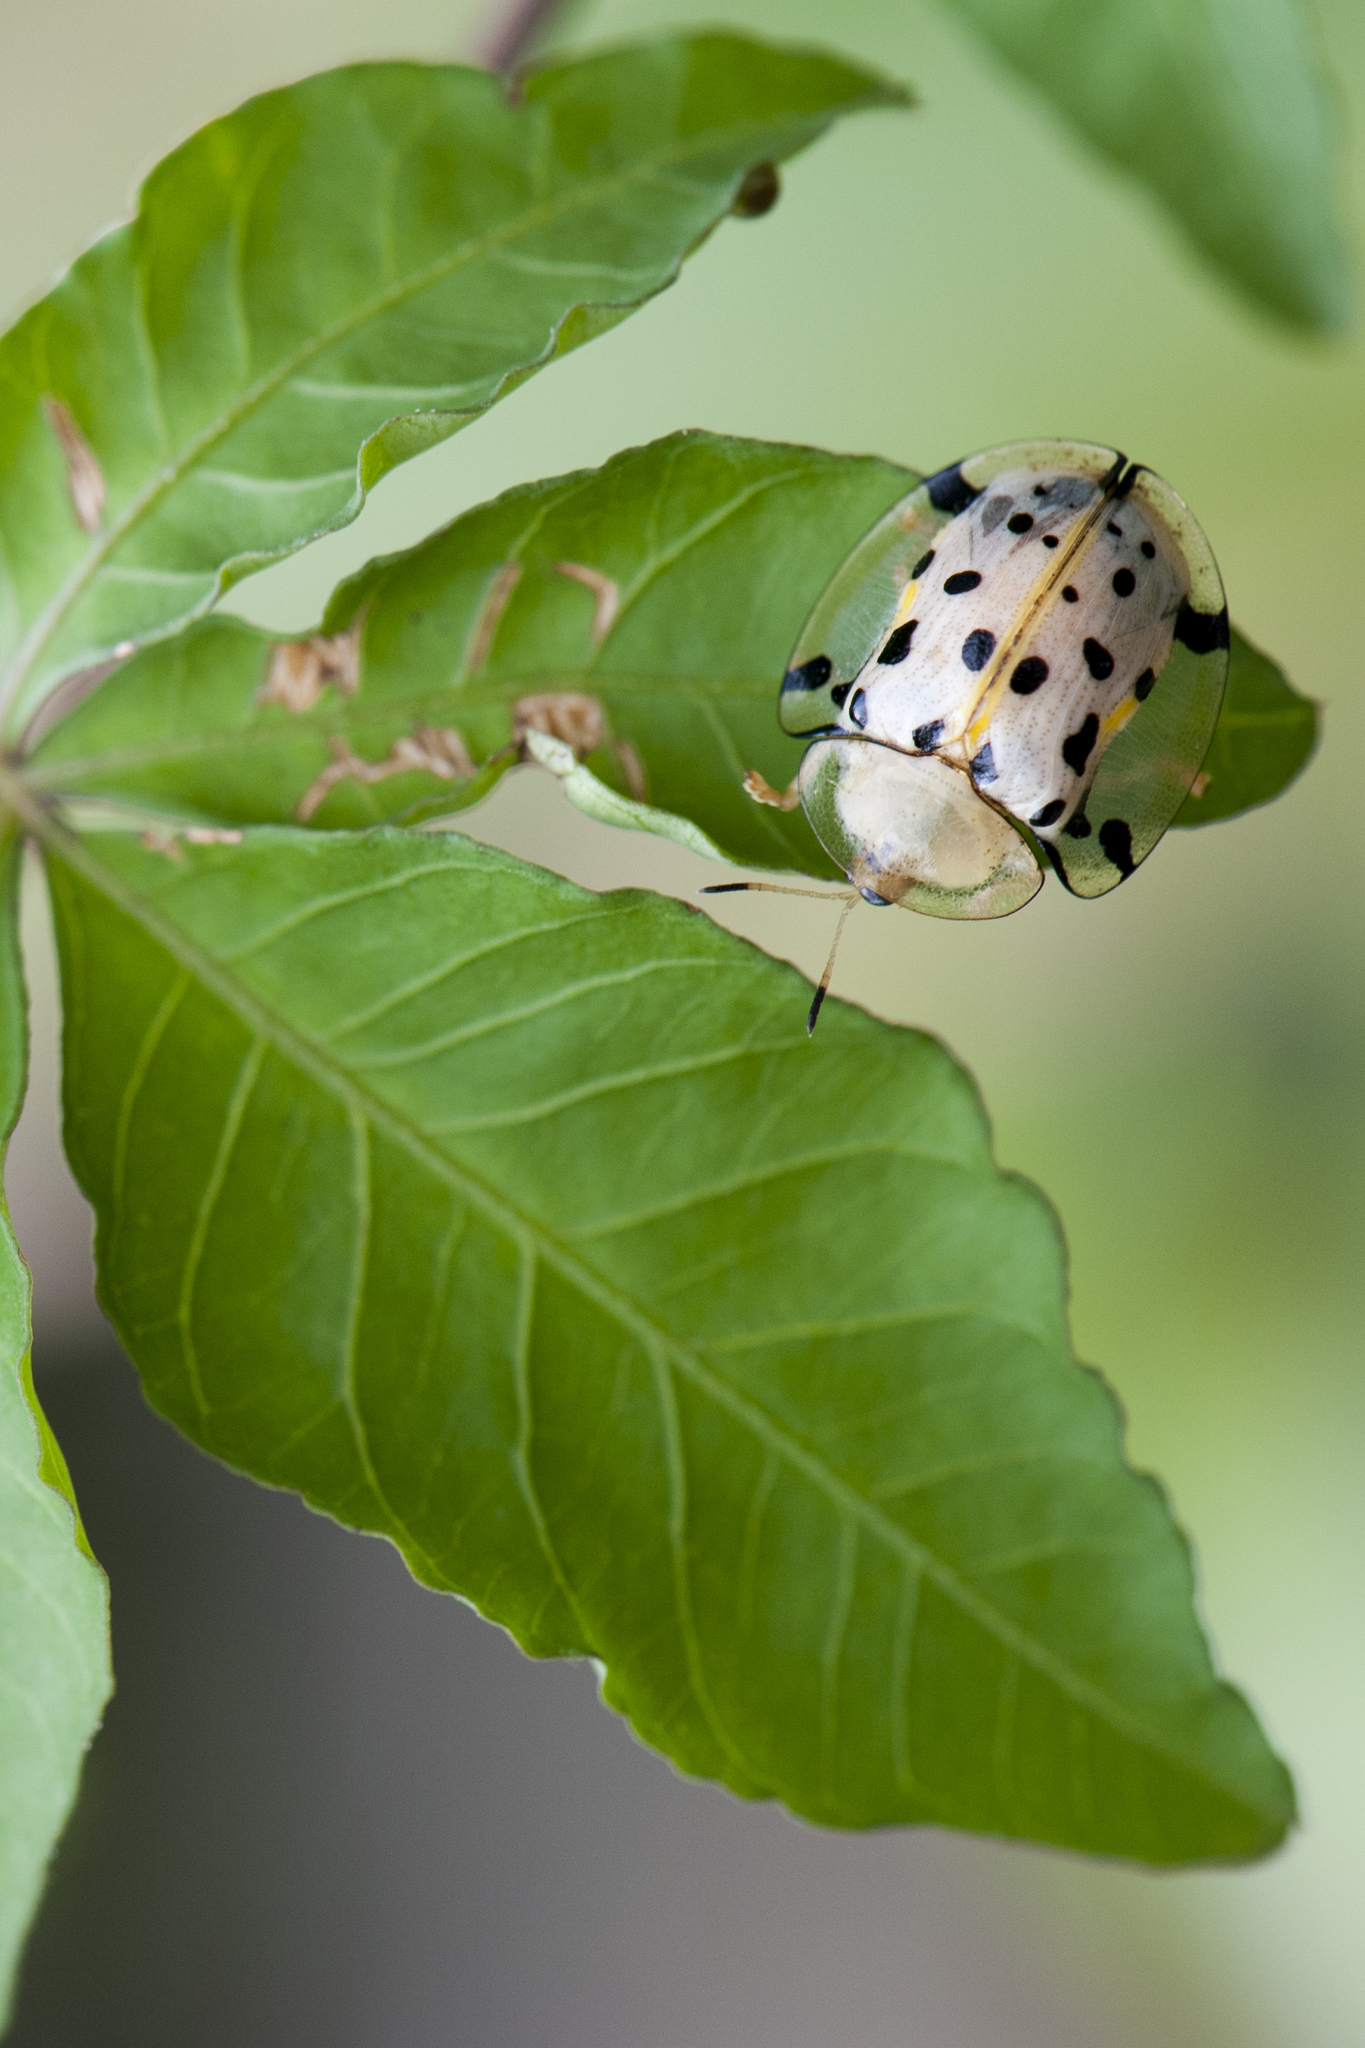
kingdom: Animalia
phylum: Arthropoda
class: Insecta
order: Coleoptera
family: Chrysomelidae
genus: Aspidimorpha
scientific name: Aspidimorpha miliaris
